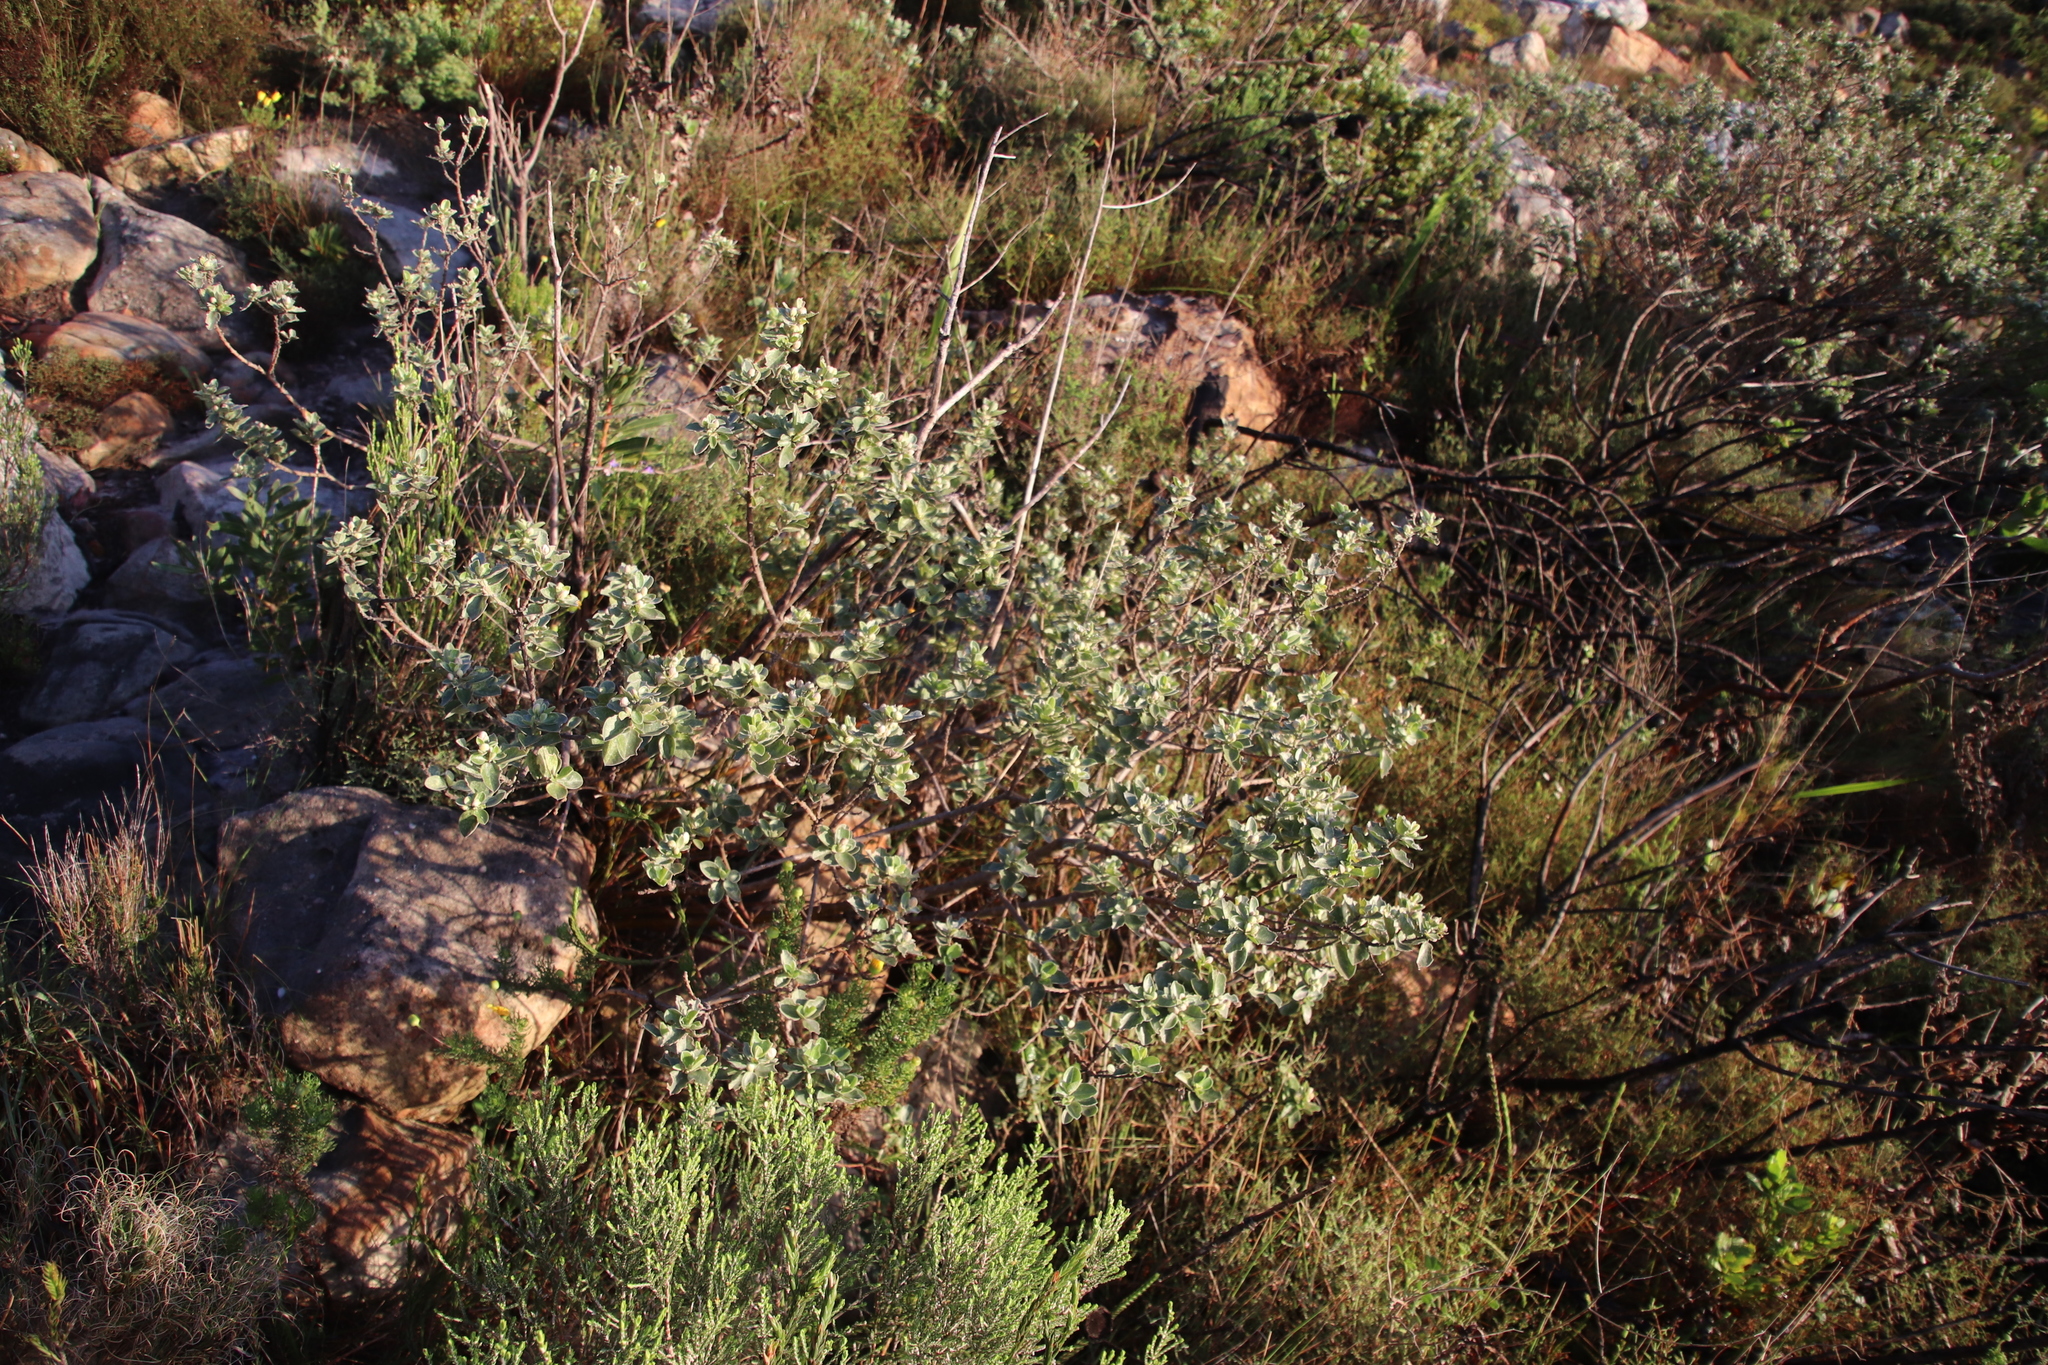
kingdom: Plantae
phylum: Tracheophyta
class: Magnoliopsida
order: Fabales
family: Fabaceae
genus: Podalyria
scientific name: Podalyria calyptrata
